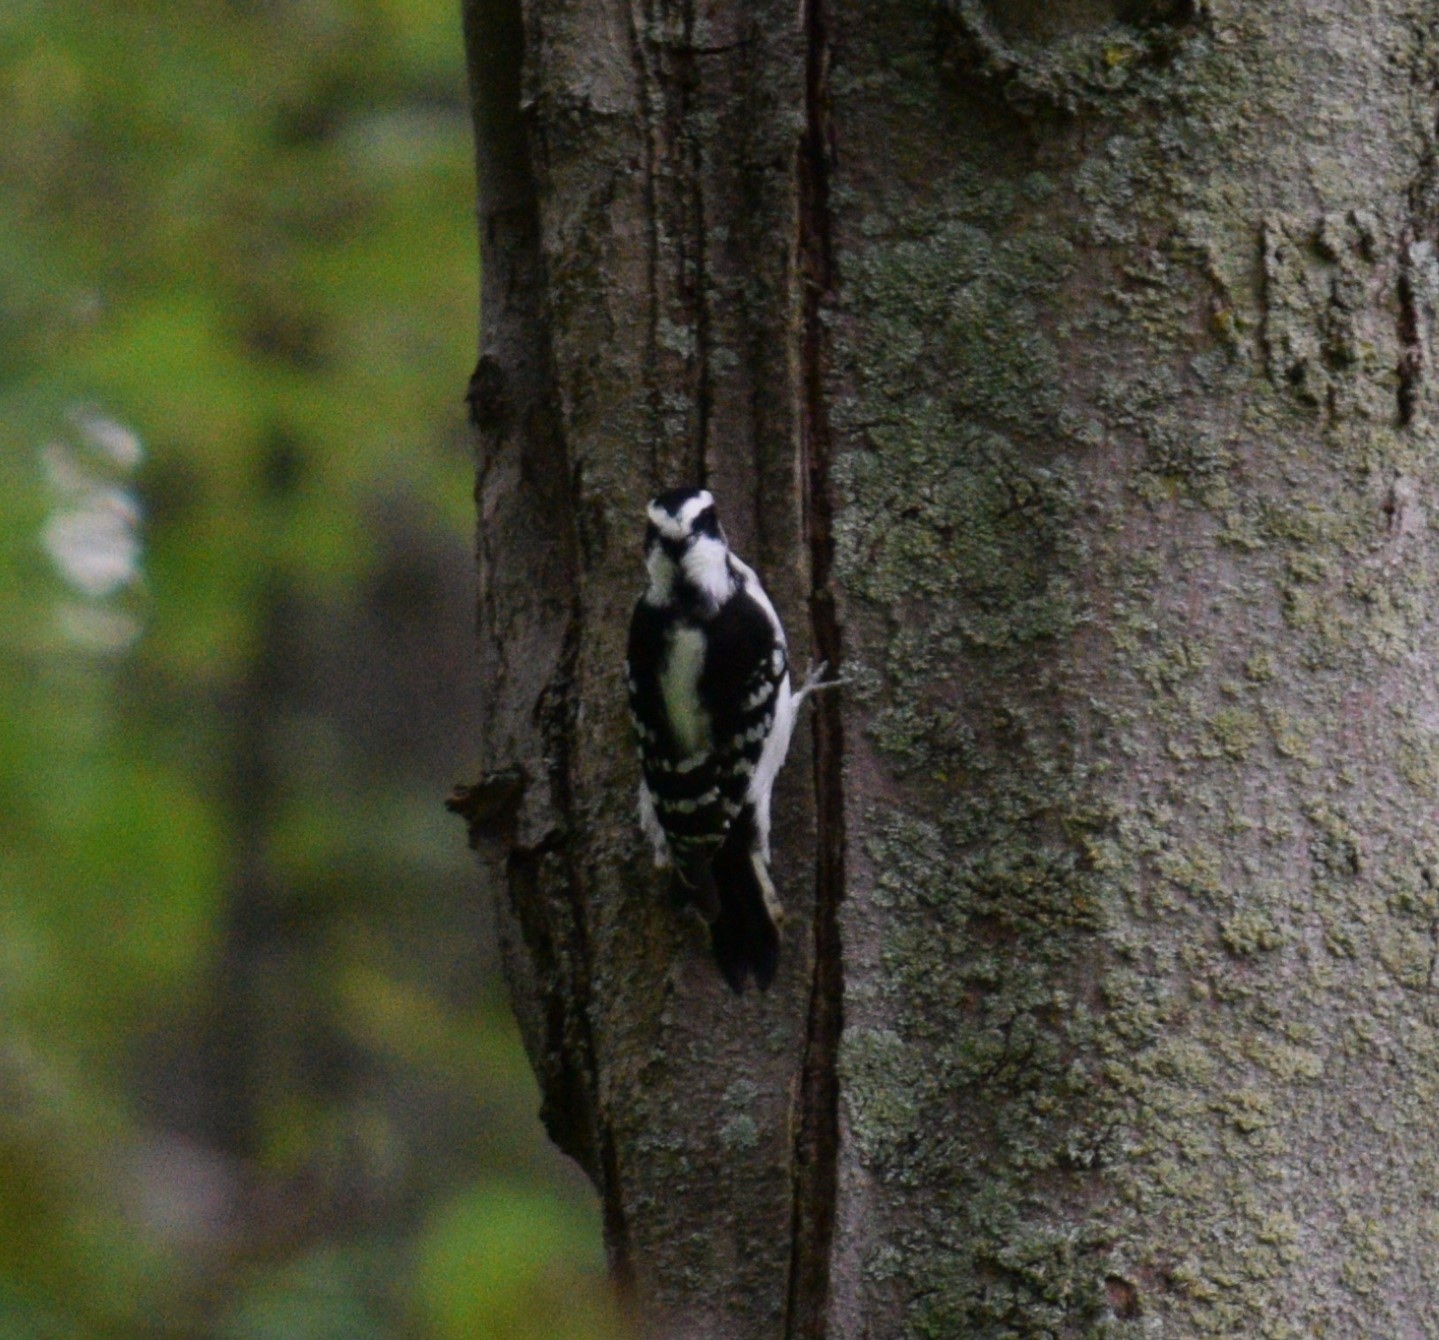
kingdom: Animalia
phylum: Chordata
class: Aves
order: Piciformes
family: Picidae
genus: Dryobates
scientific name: Dryobates pubescens
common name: Downy woodpecker
